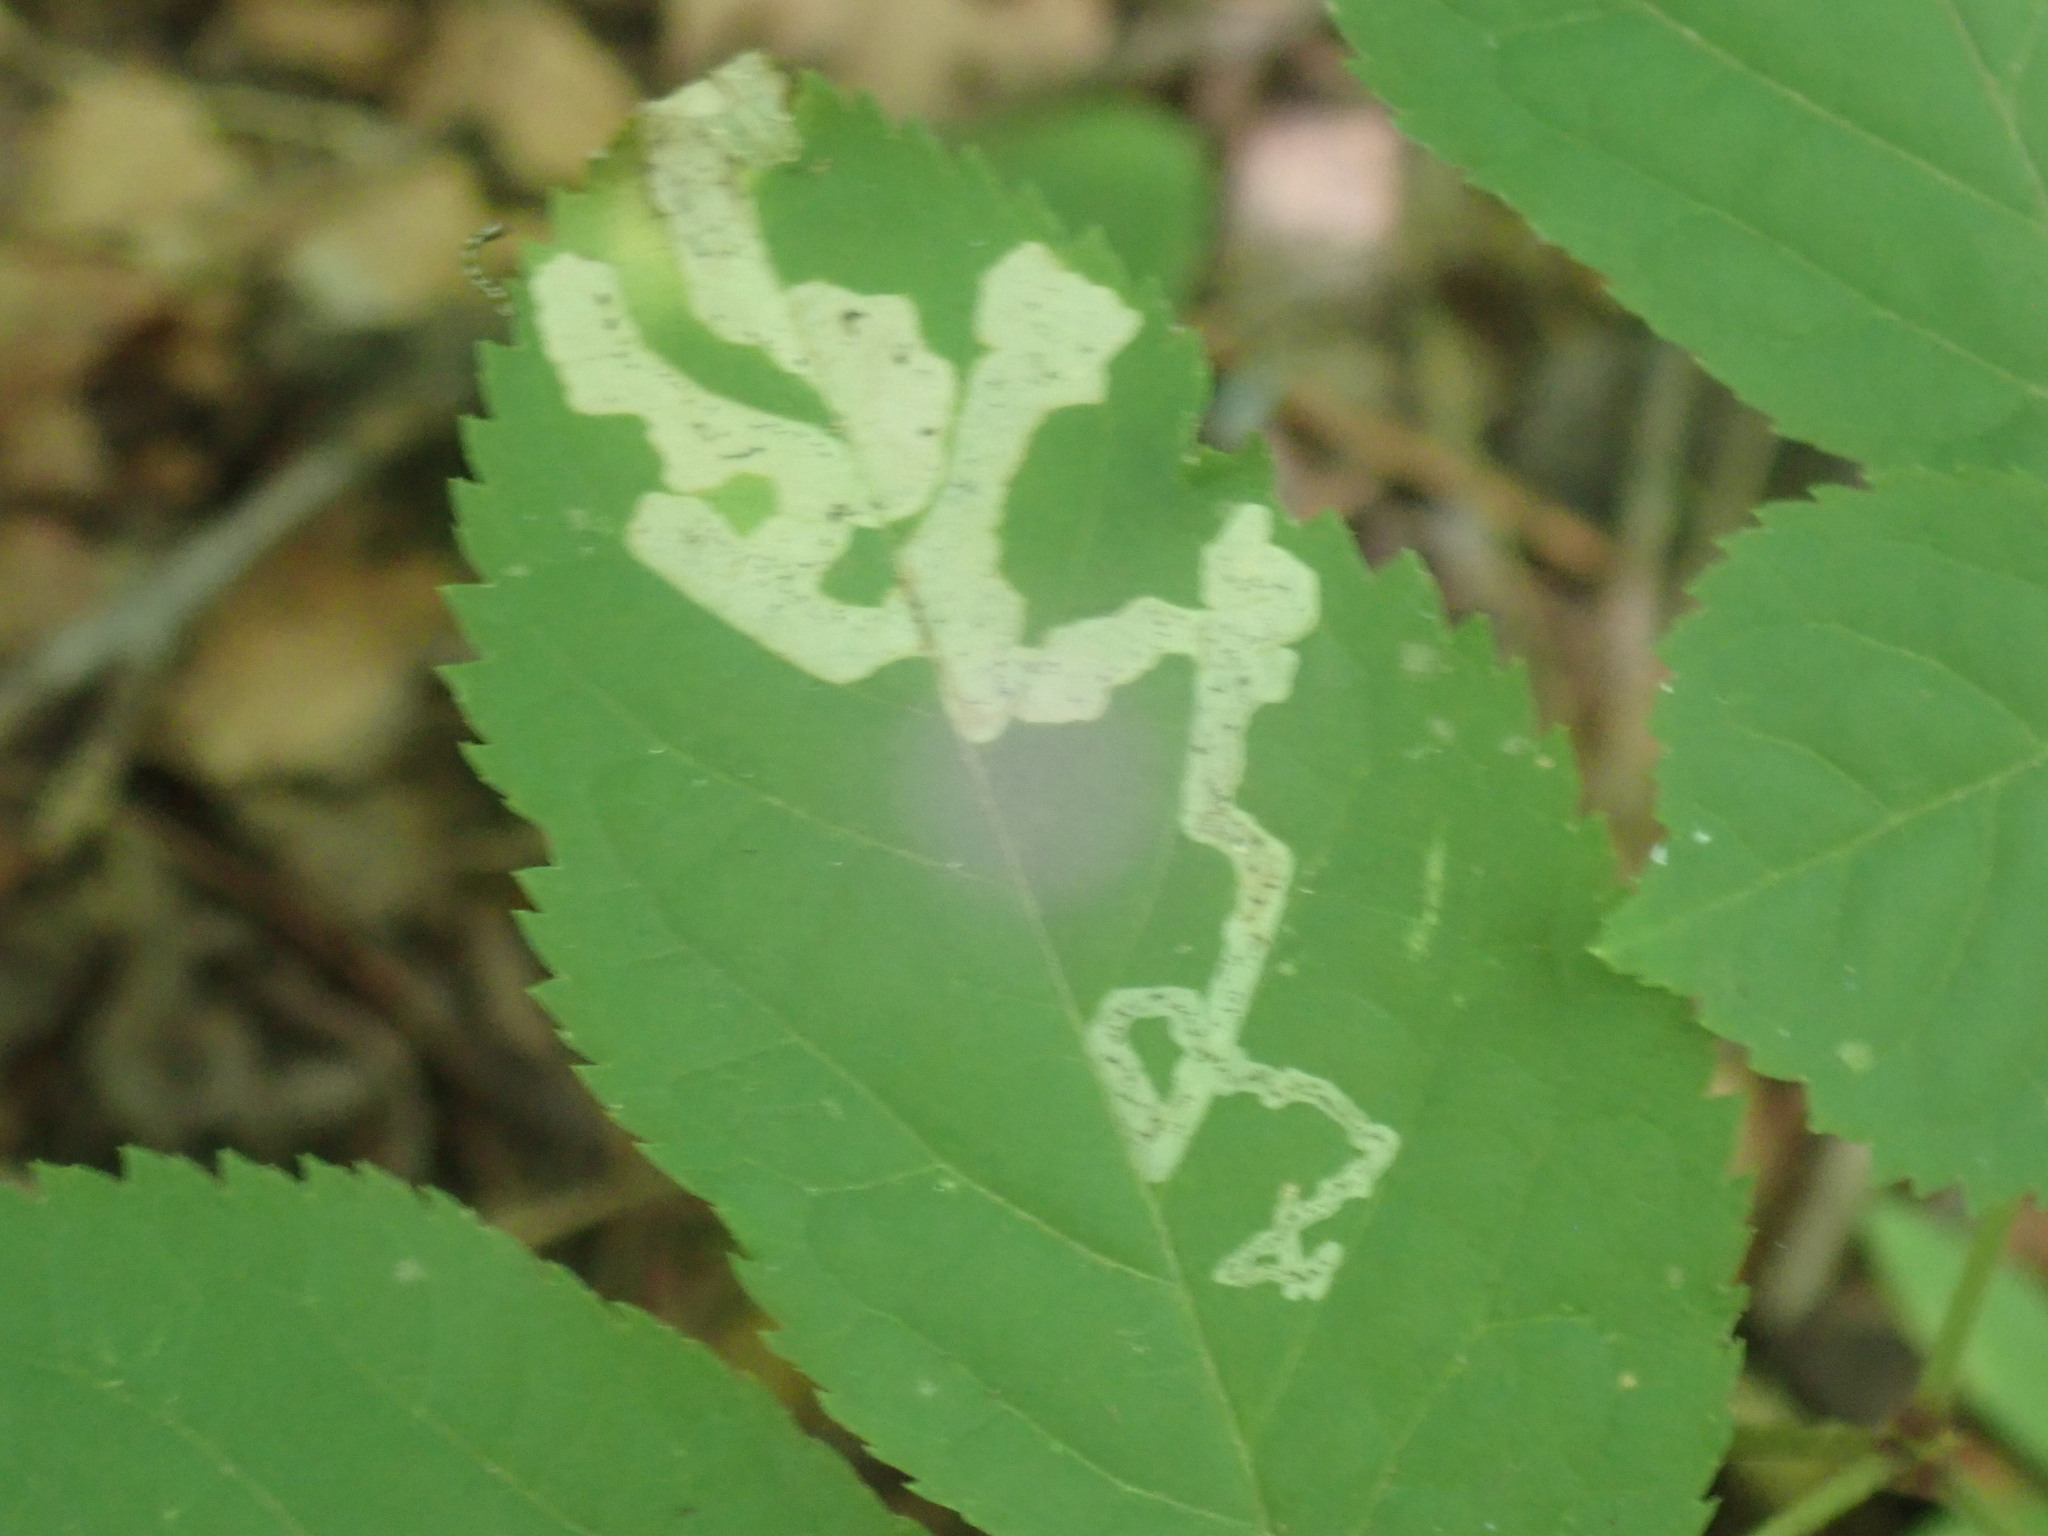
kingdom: Animalia
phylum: Arthropoda
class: Insecta
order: Diptera
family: Agromyzidae
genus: Phytomyza
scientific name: Phytomyza aralivora
